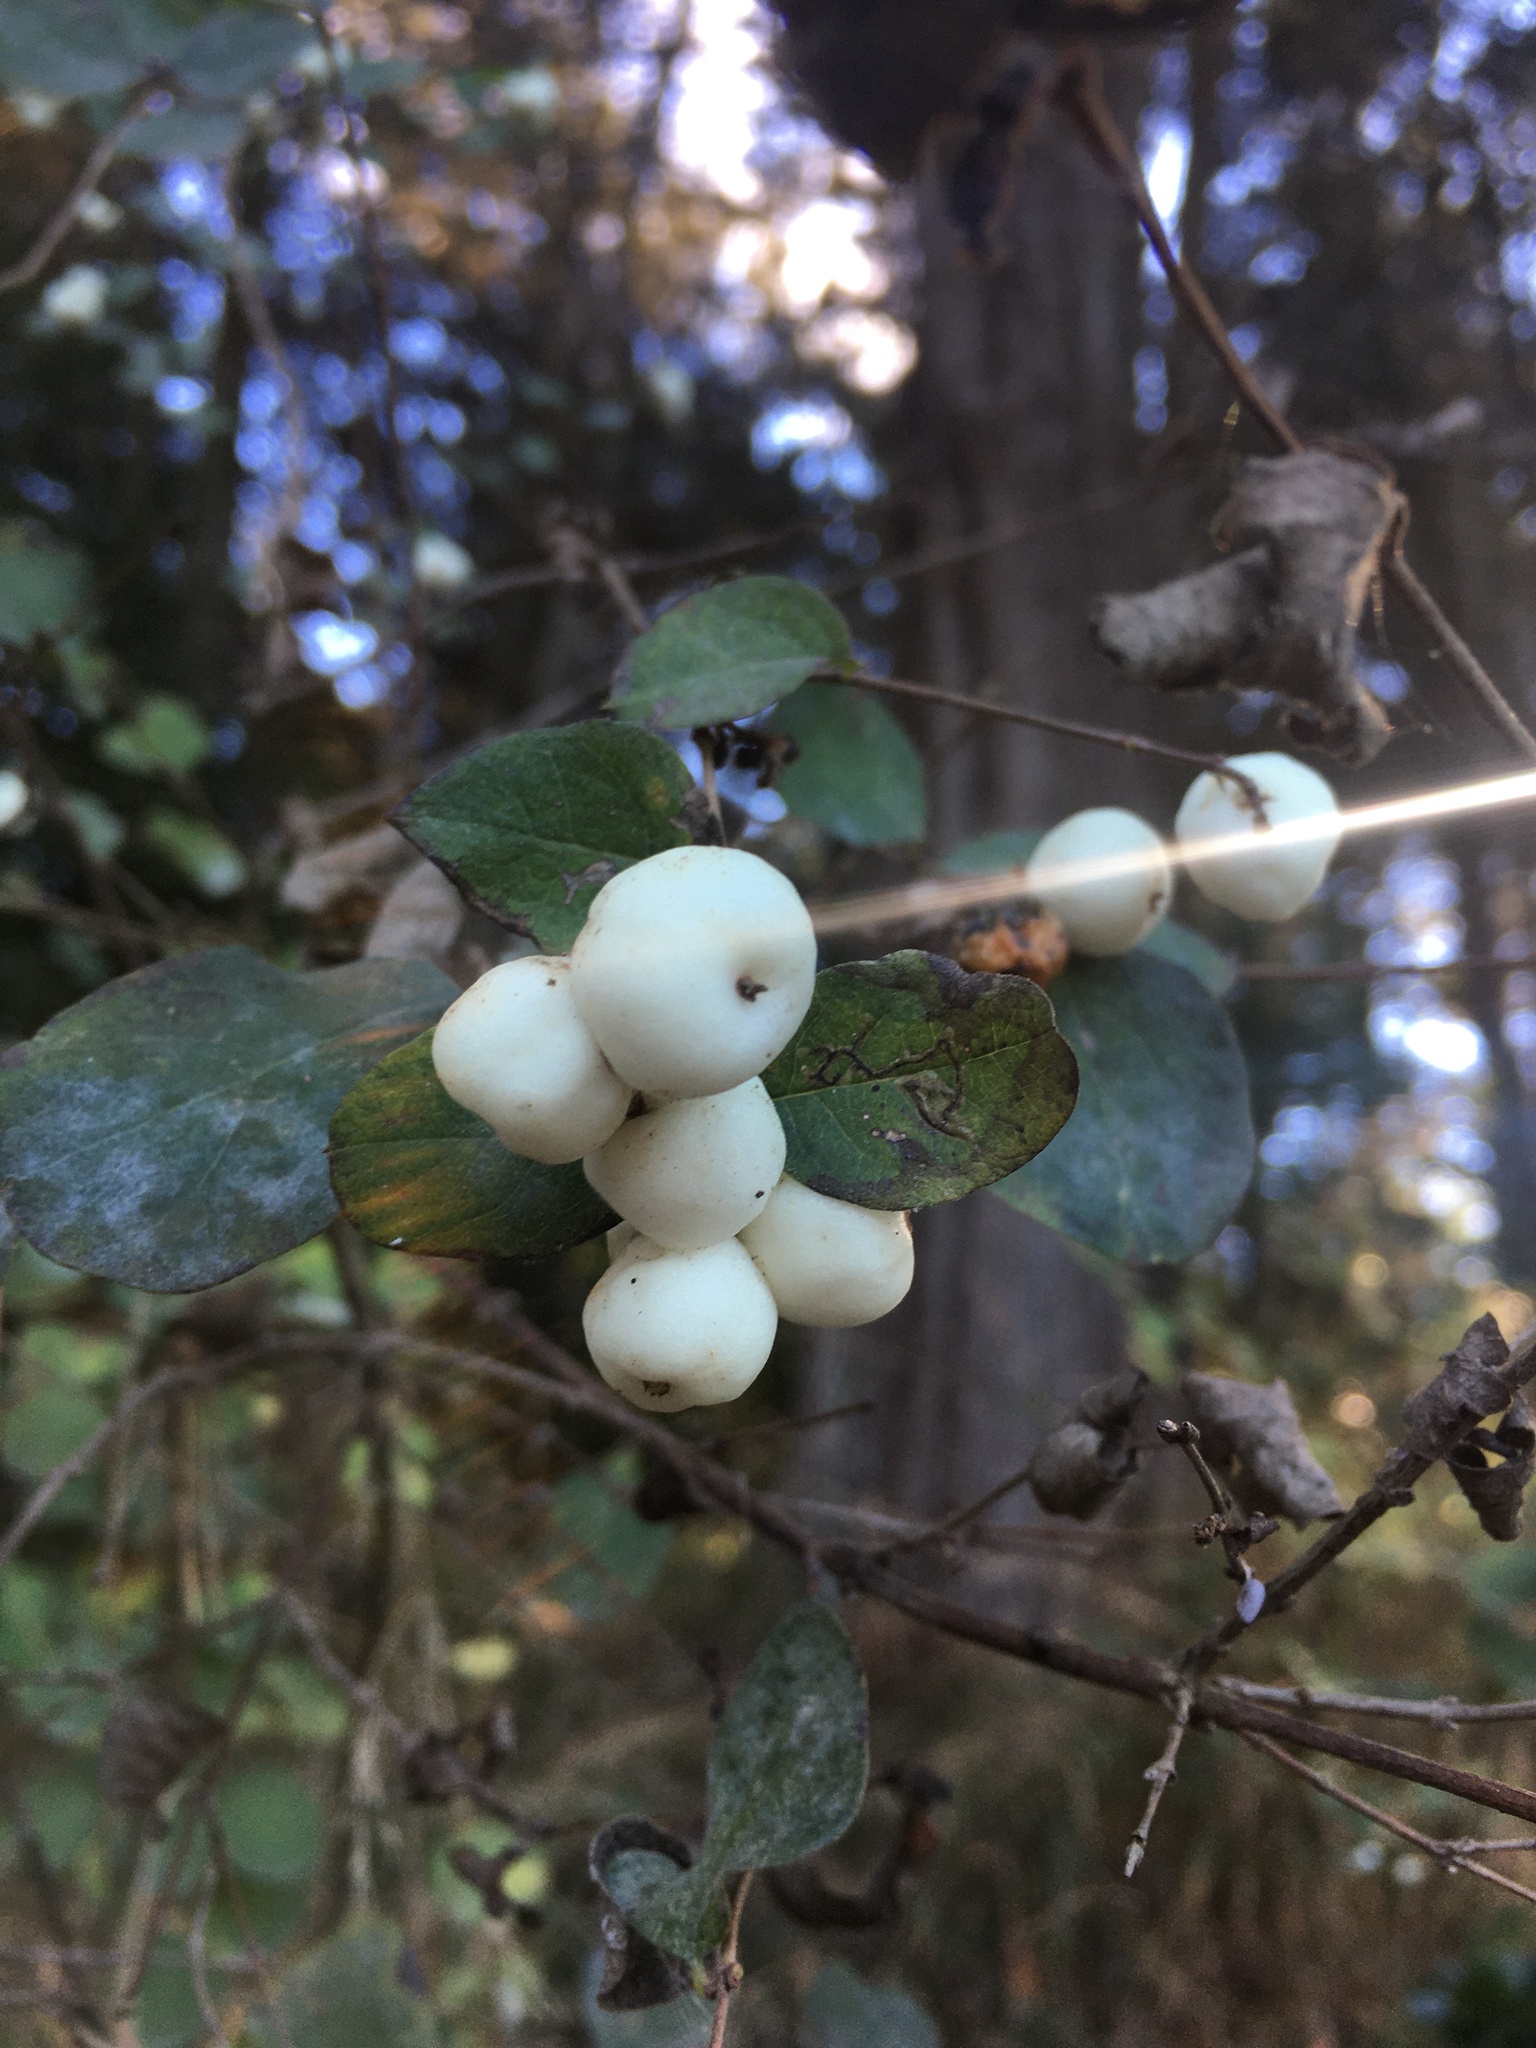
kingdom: Plantae
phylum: Tracheophyta
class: Magnoliopsida
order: Dipsacales
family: Caprifoliaceae
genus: Symphoricarpos
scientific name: Symphoricarpos albus
